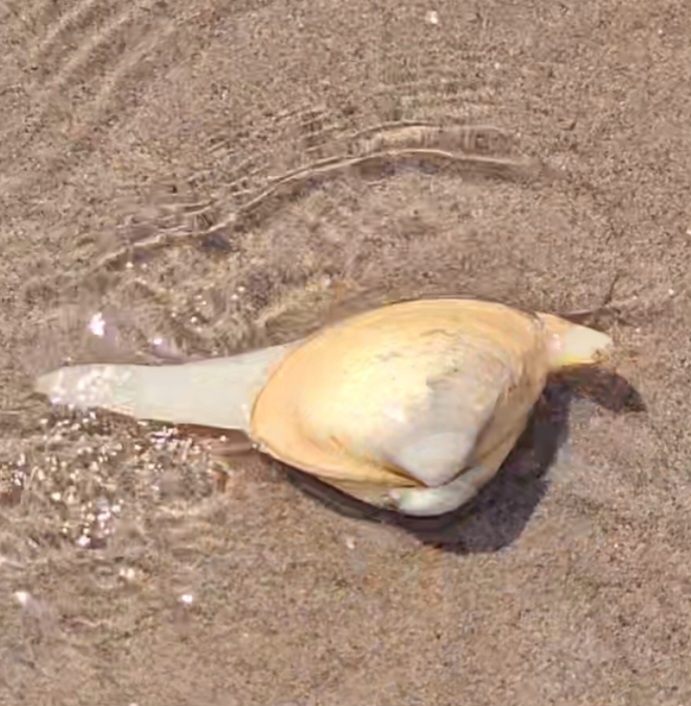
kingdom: Animalia
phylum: Mollusca
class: Bivalvia
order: Venerida
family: Mactridae
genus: Spisula
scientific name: Spisula solidissima
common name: Atlantic surf clam
